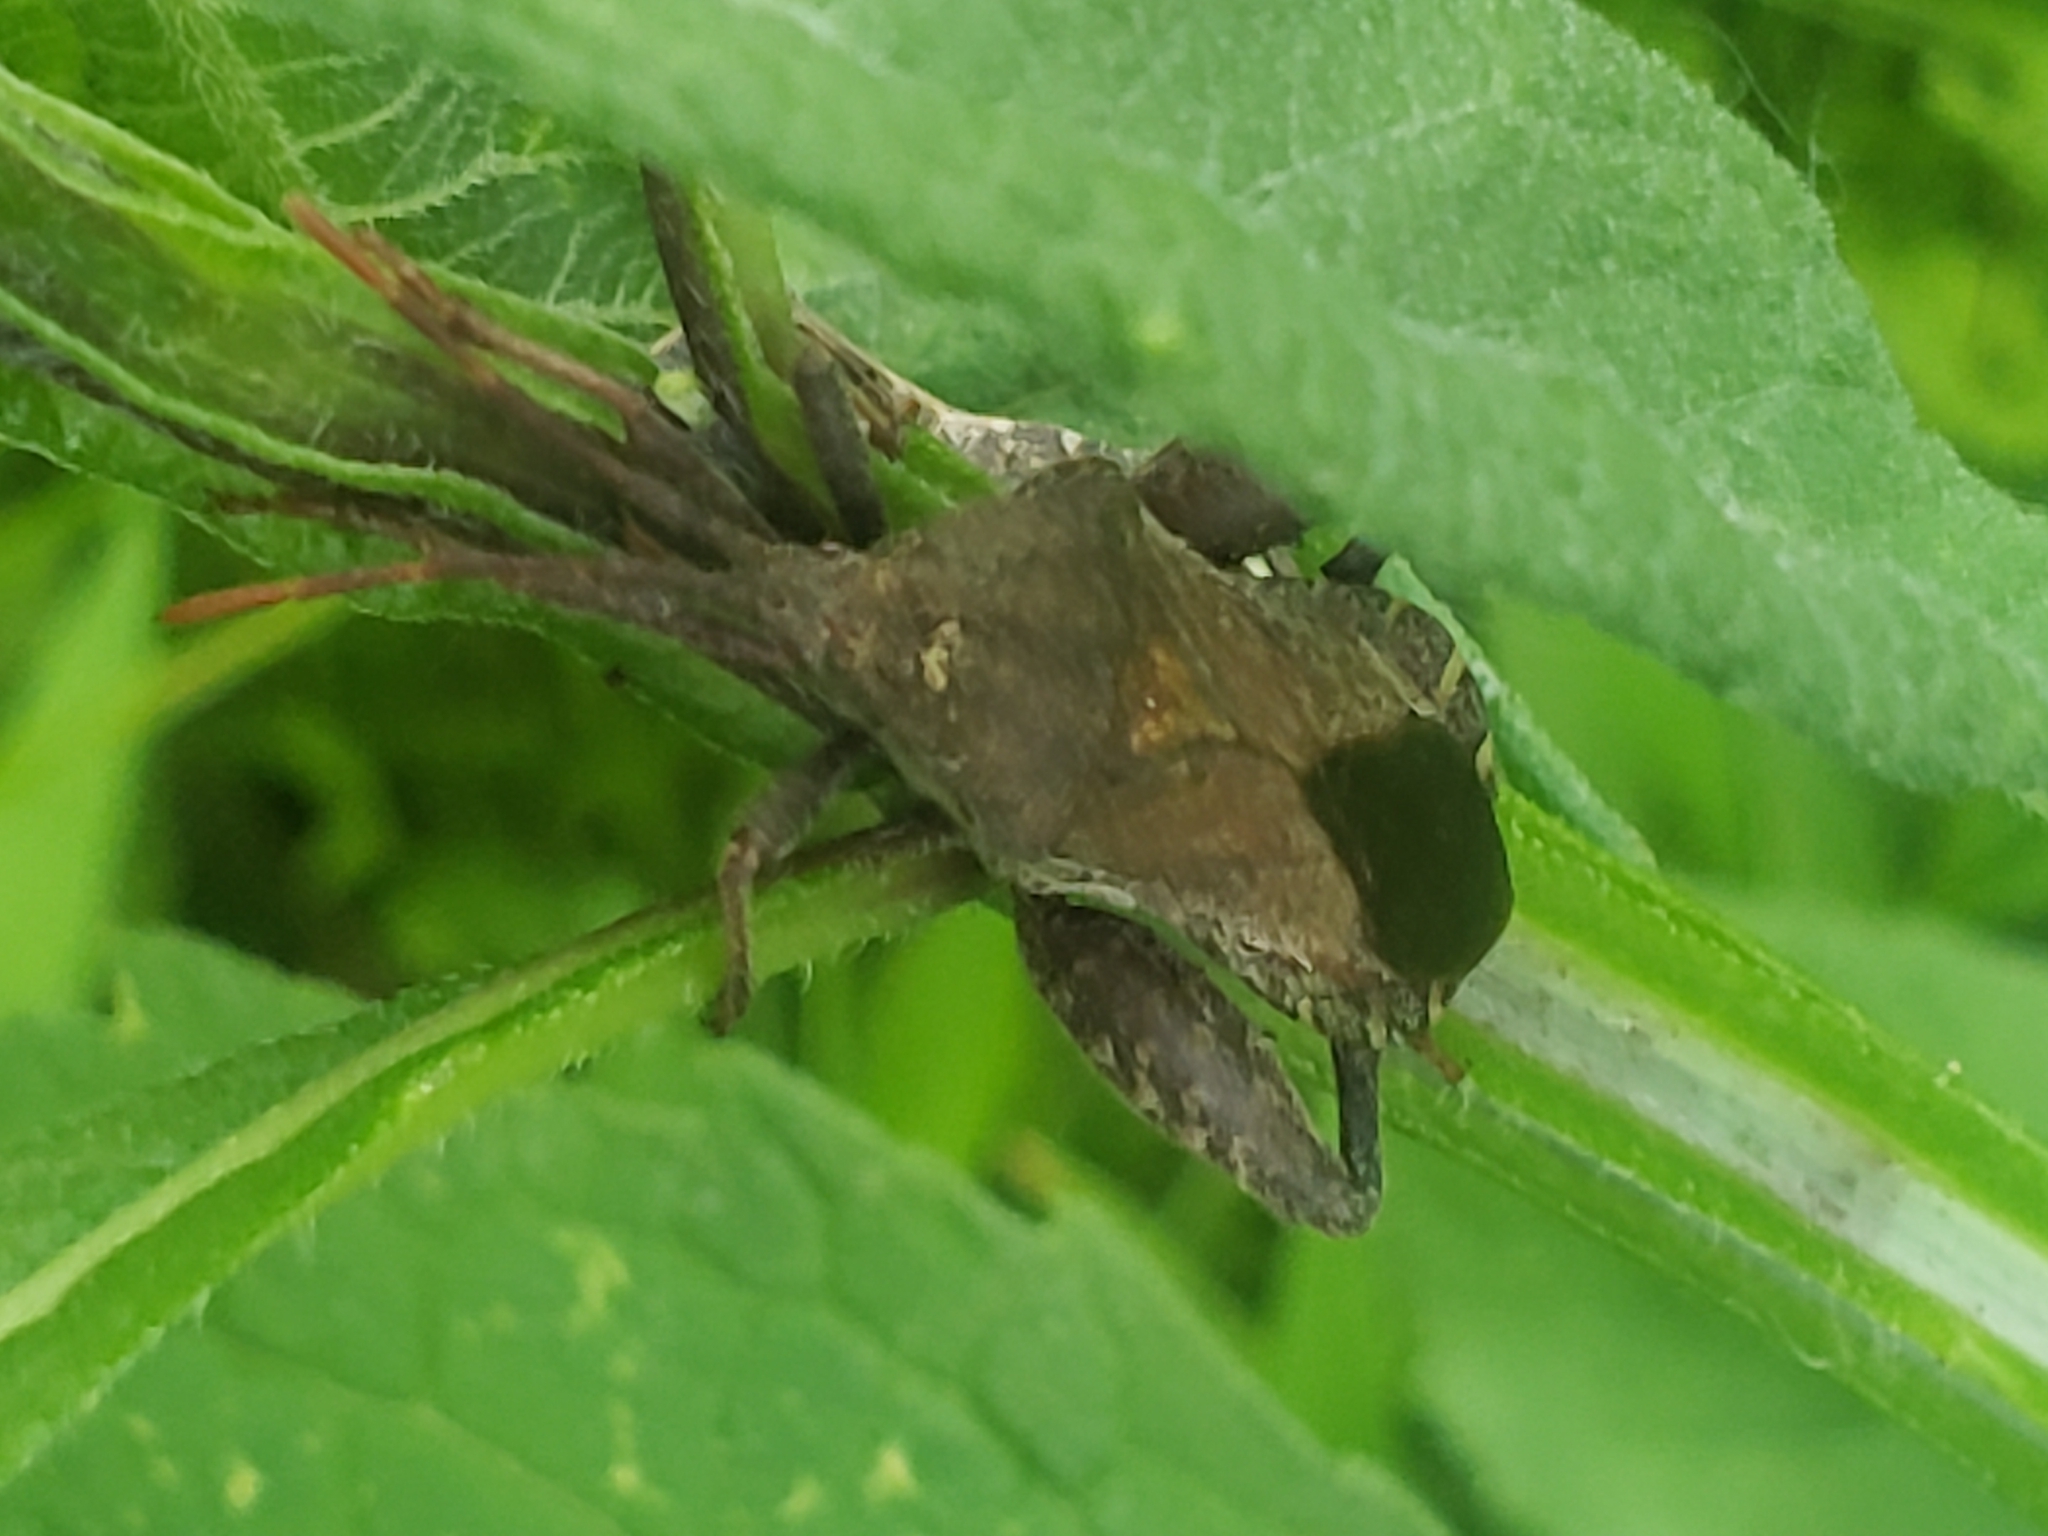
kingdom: Animalia
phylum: Arthropoda
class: Insecta
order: Hemiptera
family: Coreidae
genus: Piezogaster
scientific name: Piezogaster calcarator
